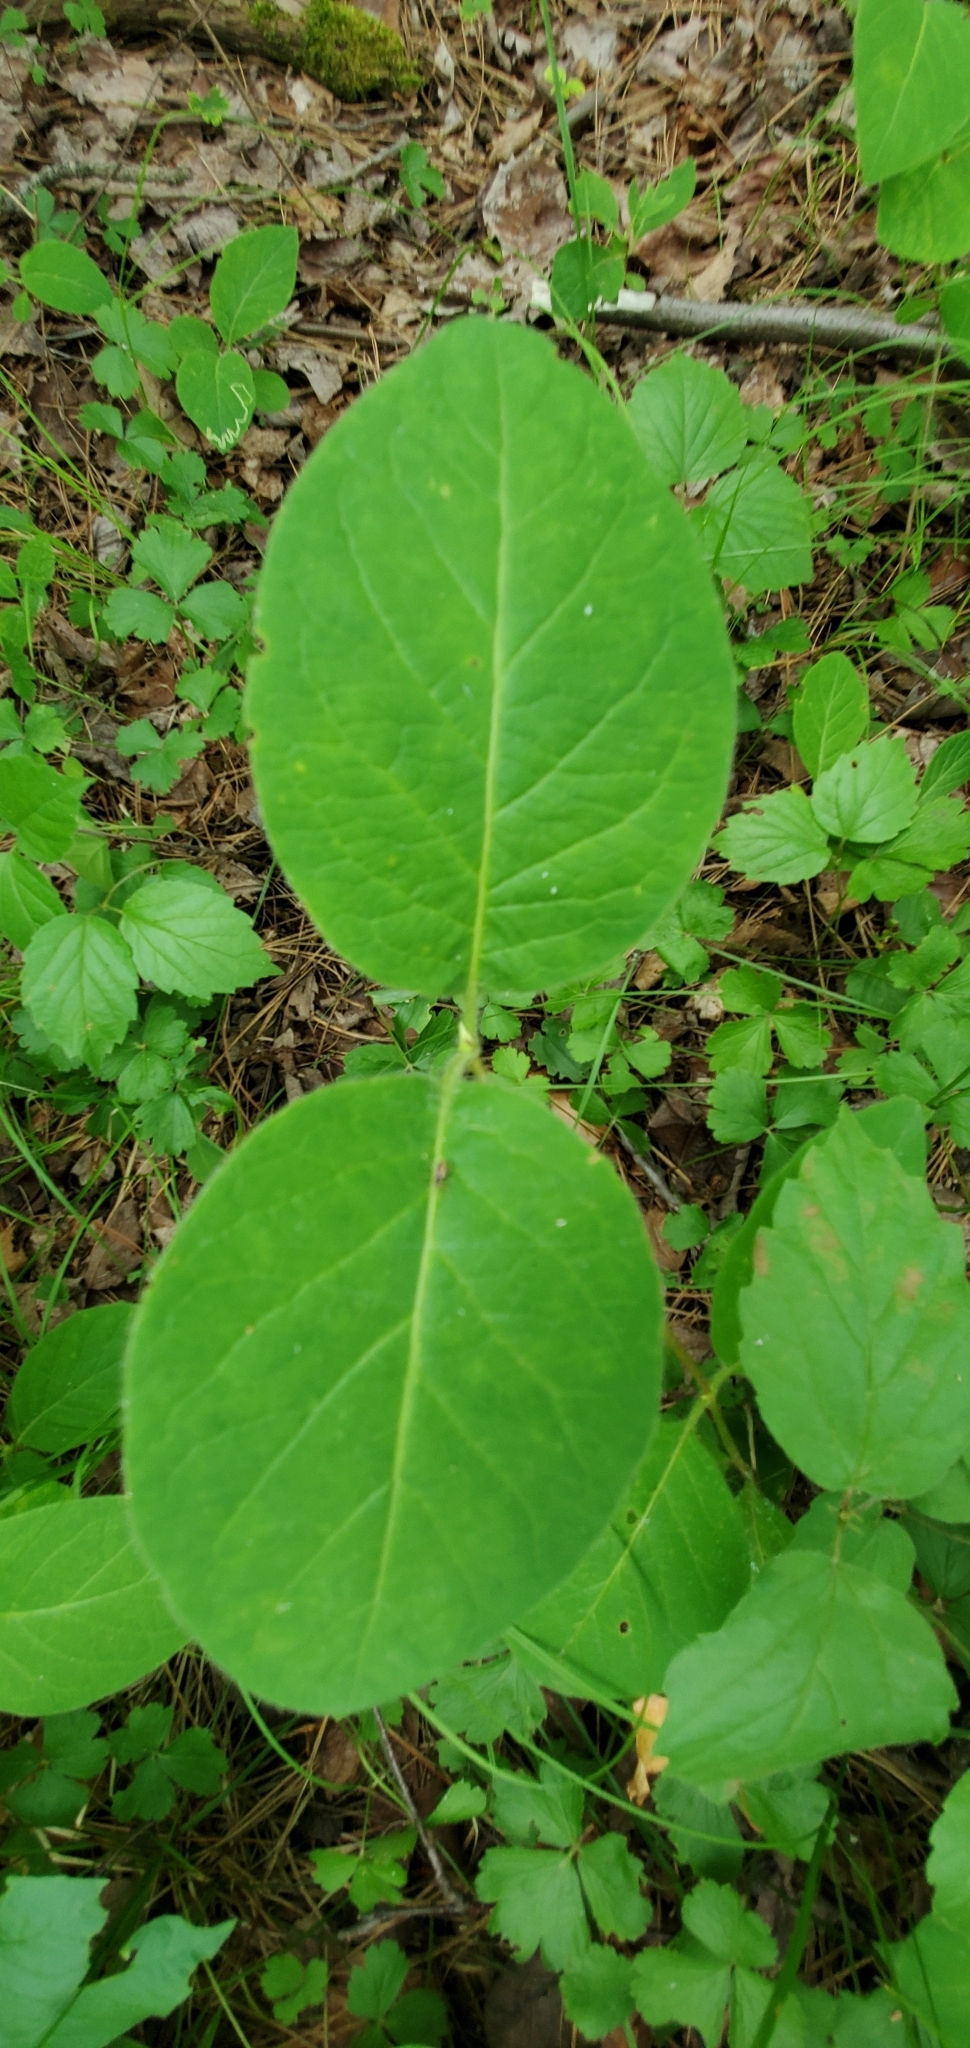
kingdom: Plantae
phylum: Tracheophyta
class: Magnoliopsida
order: Dipsacales
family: Caprifoliaceae
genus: Lonicera
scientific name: Lonicera hirsuta
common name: Hairy honeysuckle
